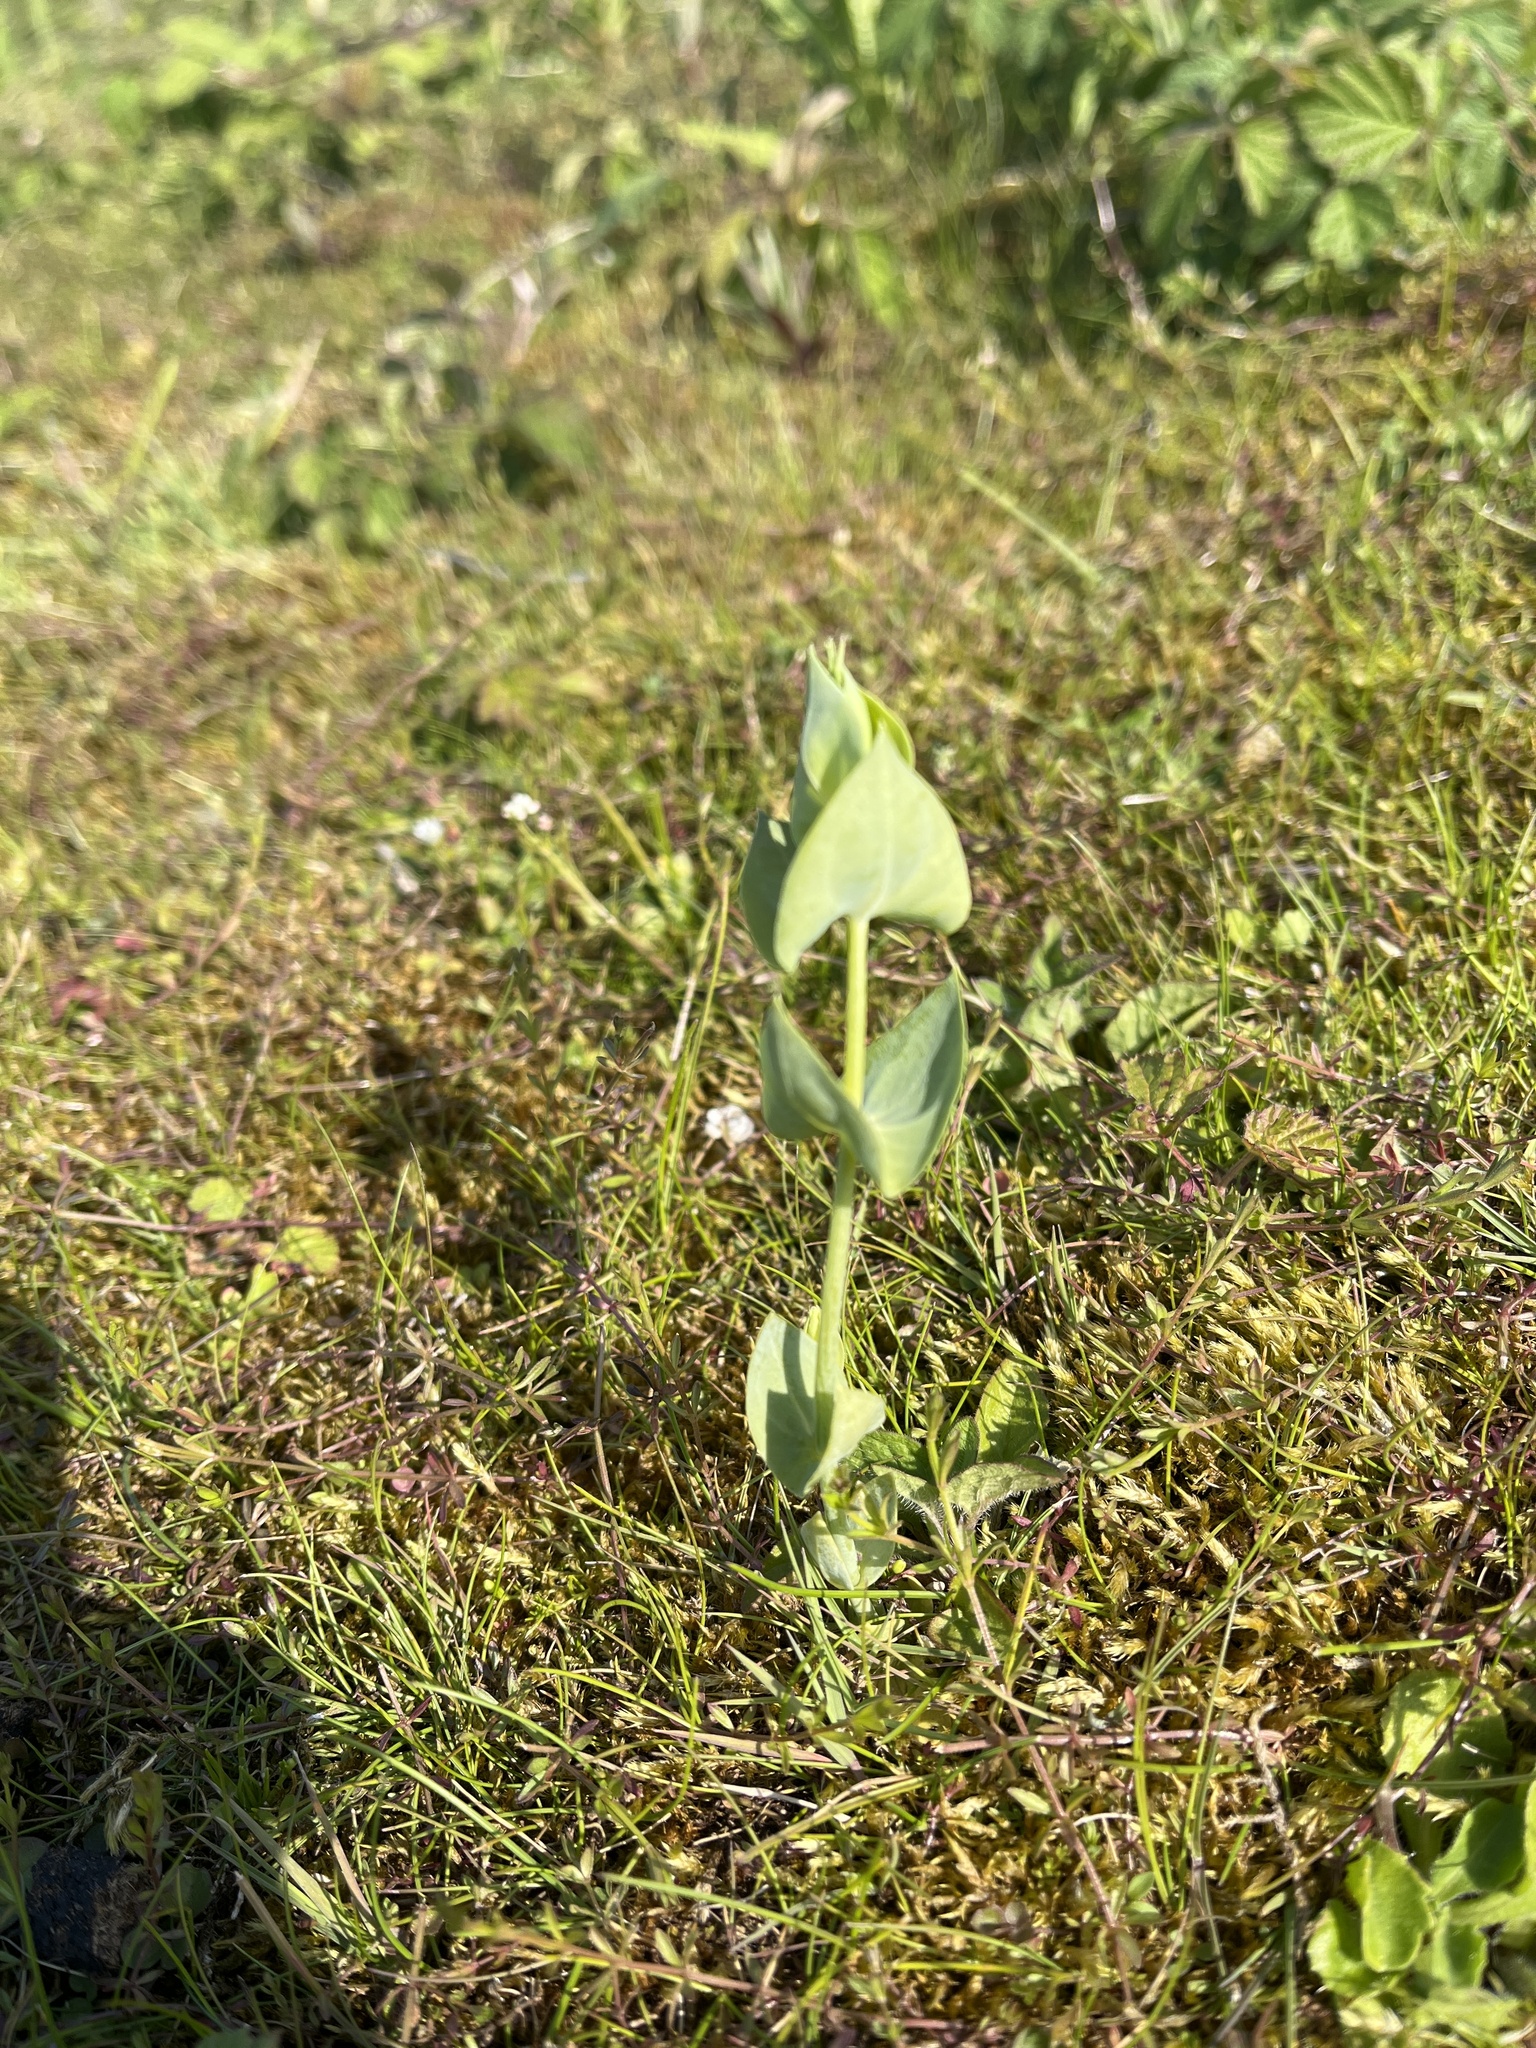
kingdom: Plantae
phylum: Tracheophyta
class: Magnoliopsida
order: Gentianales
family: Gentianaceae
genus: Blackstonia
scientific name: Blackstonia perfoliata
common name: Yellow-wort
